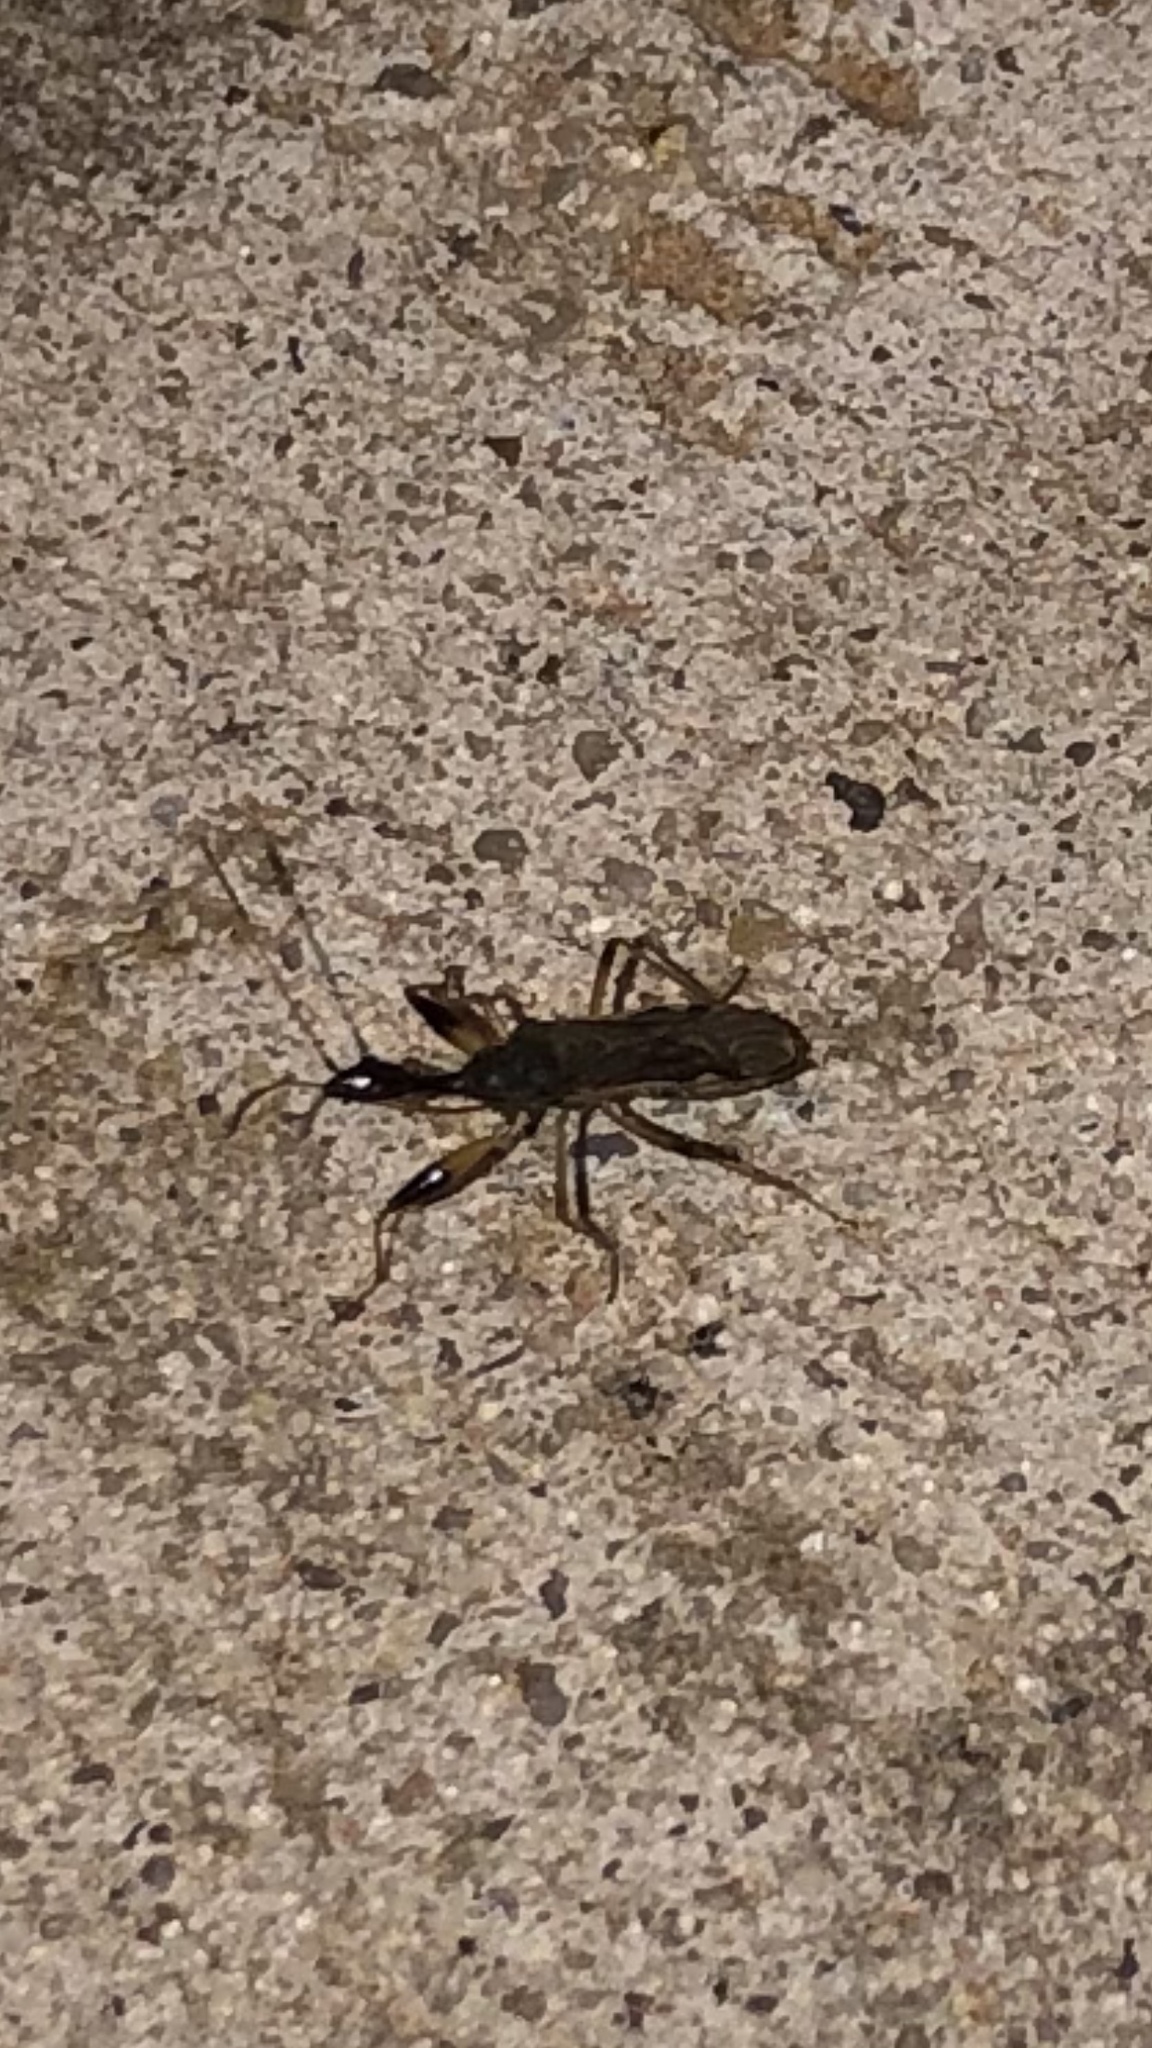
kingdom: Animalia
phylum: Arthropoda
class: Insecta
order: Hemiptera
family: Rhyparochromidae
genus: Myodocha
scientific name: Myodocha serripes
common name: Long-necked seed bug
